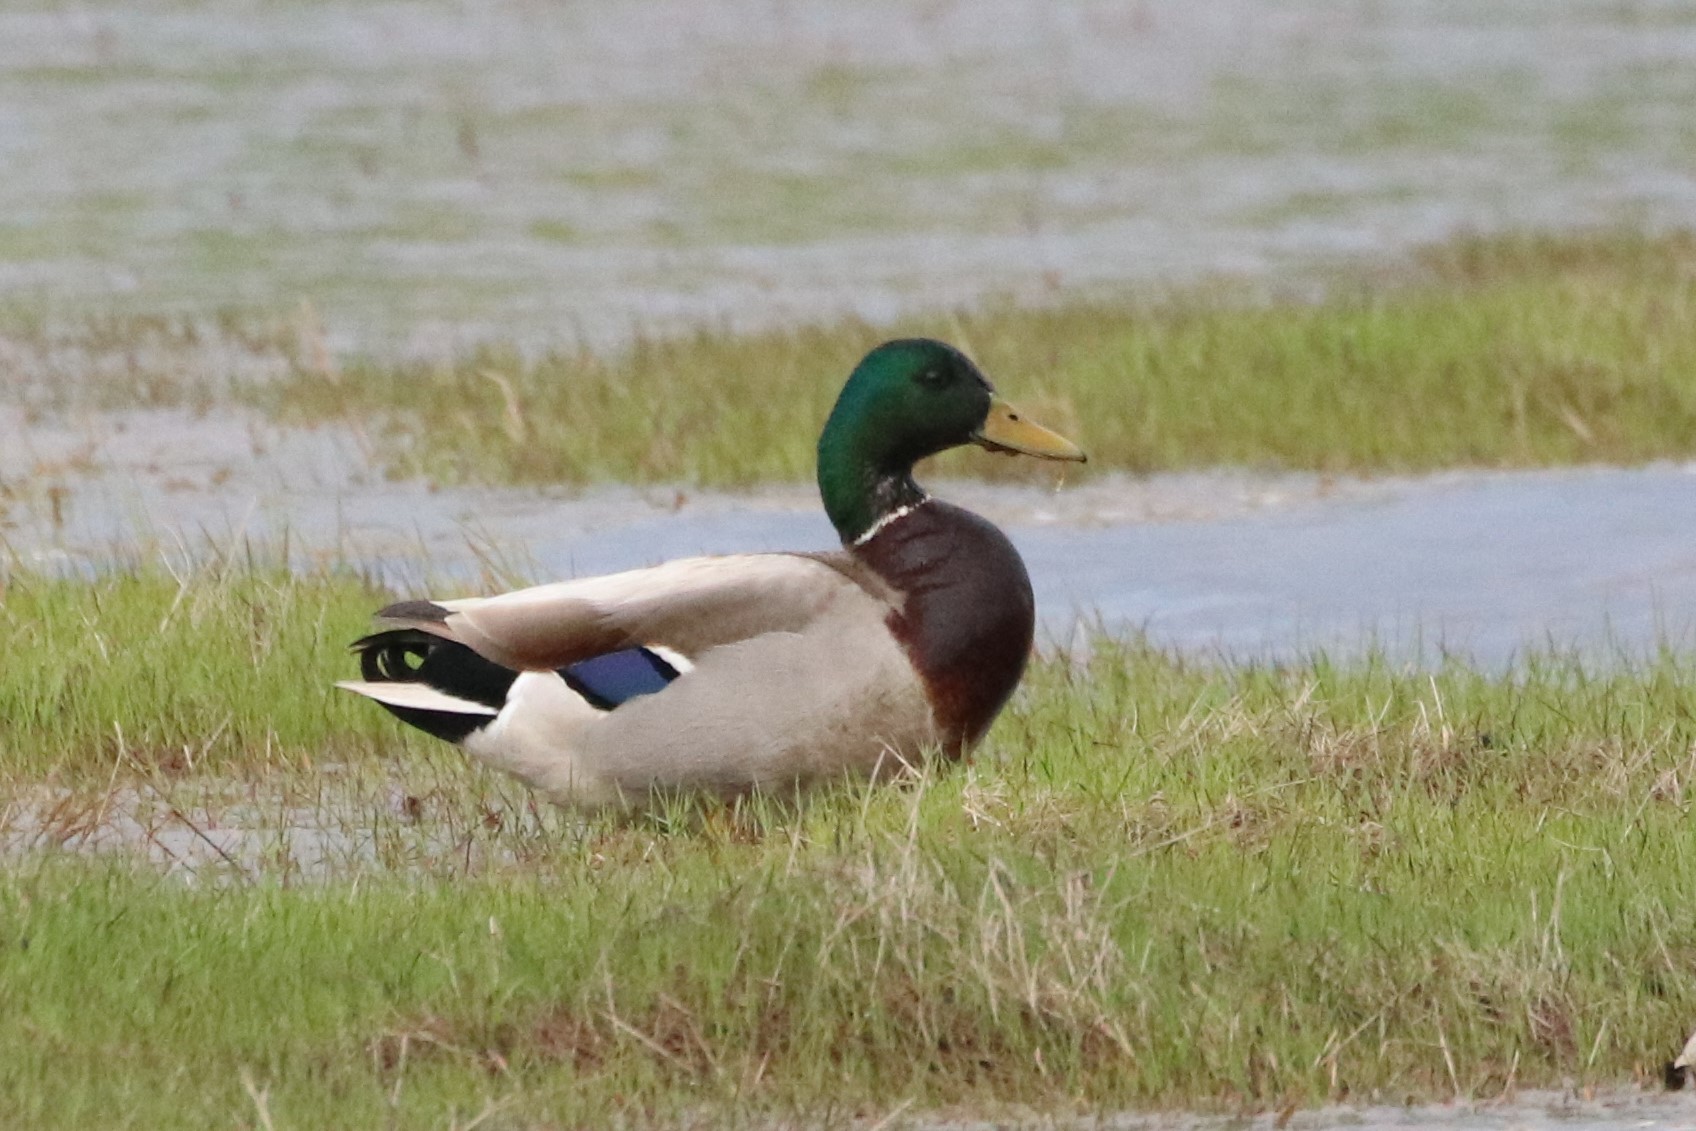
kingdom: Animalia
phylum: Chordata
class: Aves
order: Anseriformes
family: Anatidae
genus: Anas
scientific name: Anas platyrhynchos
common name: Mallard
